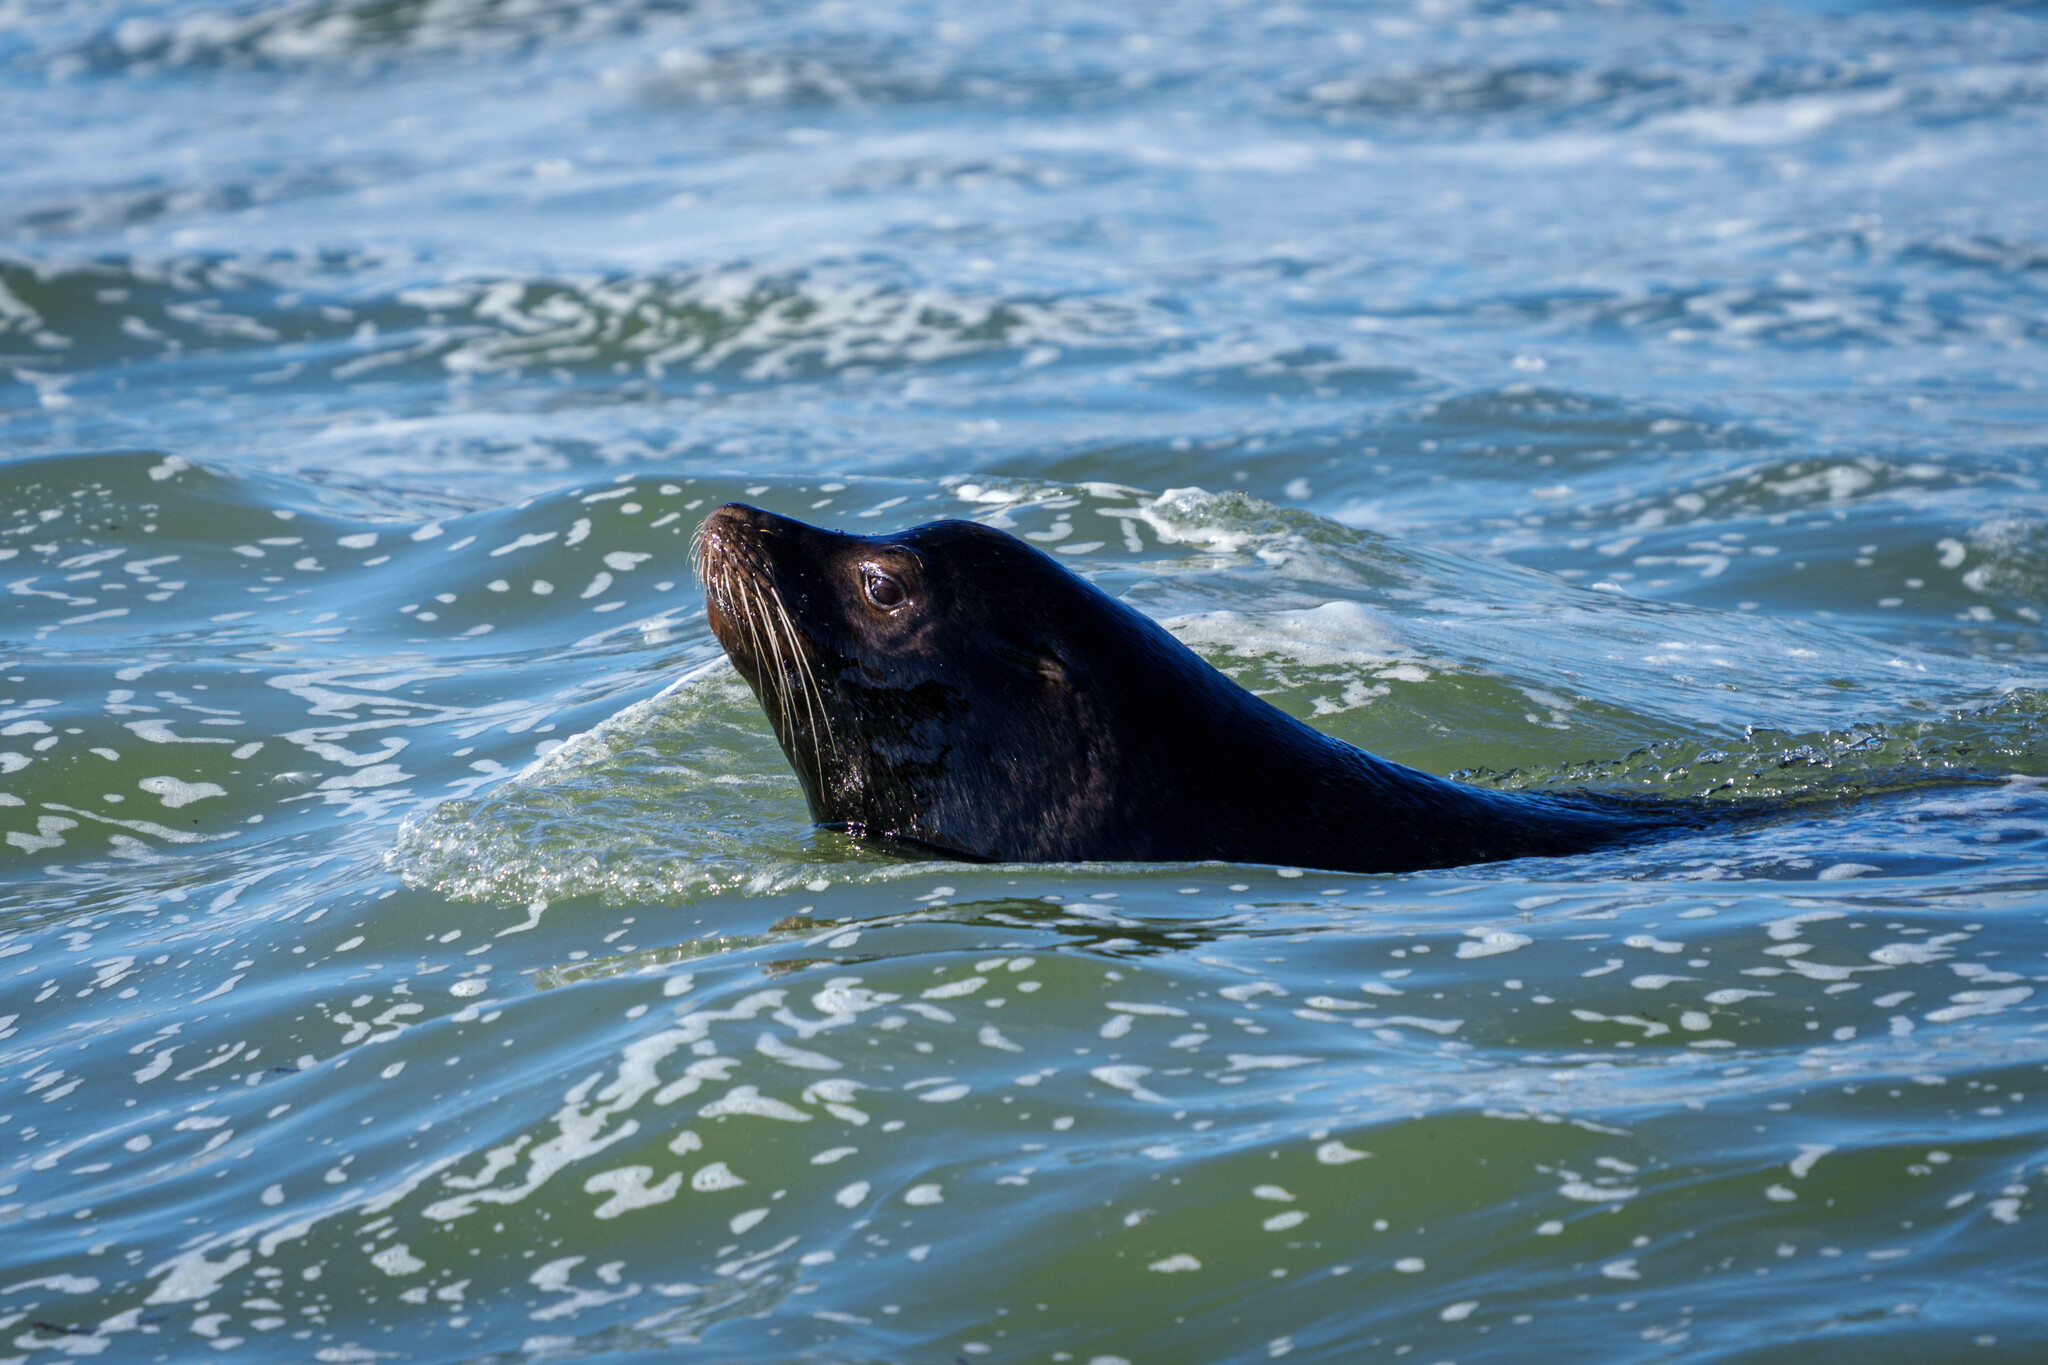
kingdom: Animalia
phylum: Chordata
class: Mammalia
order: Carnivora
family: Otariidae
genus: Zalophus
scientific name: Zalophus californianus
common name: California sea lion
